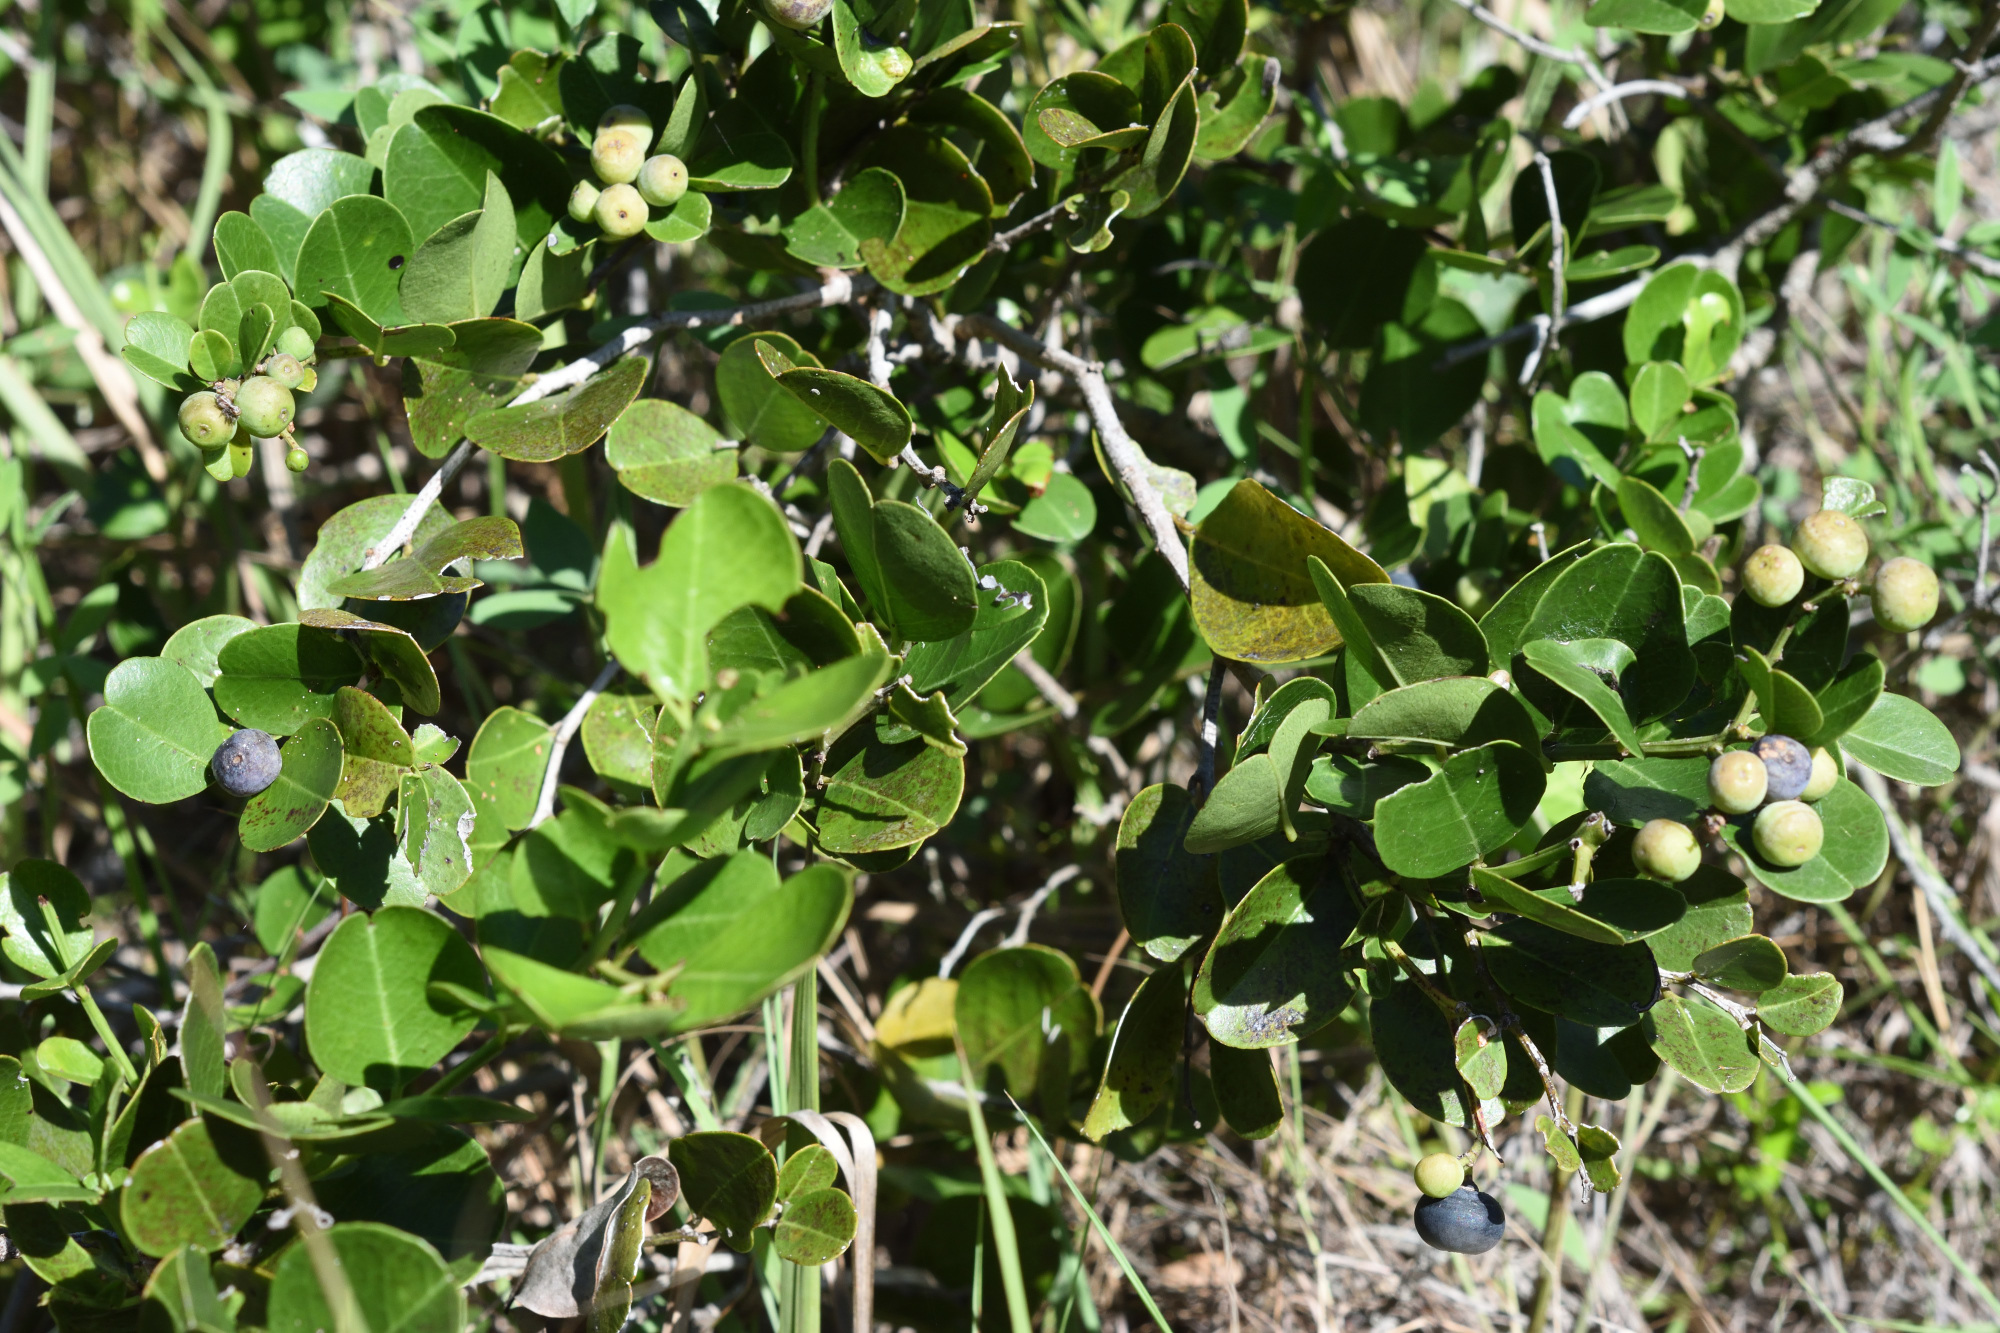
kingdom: Plantae
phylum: Tracheophyta
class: Magnoliopsida
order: Rosales
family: Rhamnaceae
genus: Scutia
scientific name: Scutia myrtina
